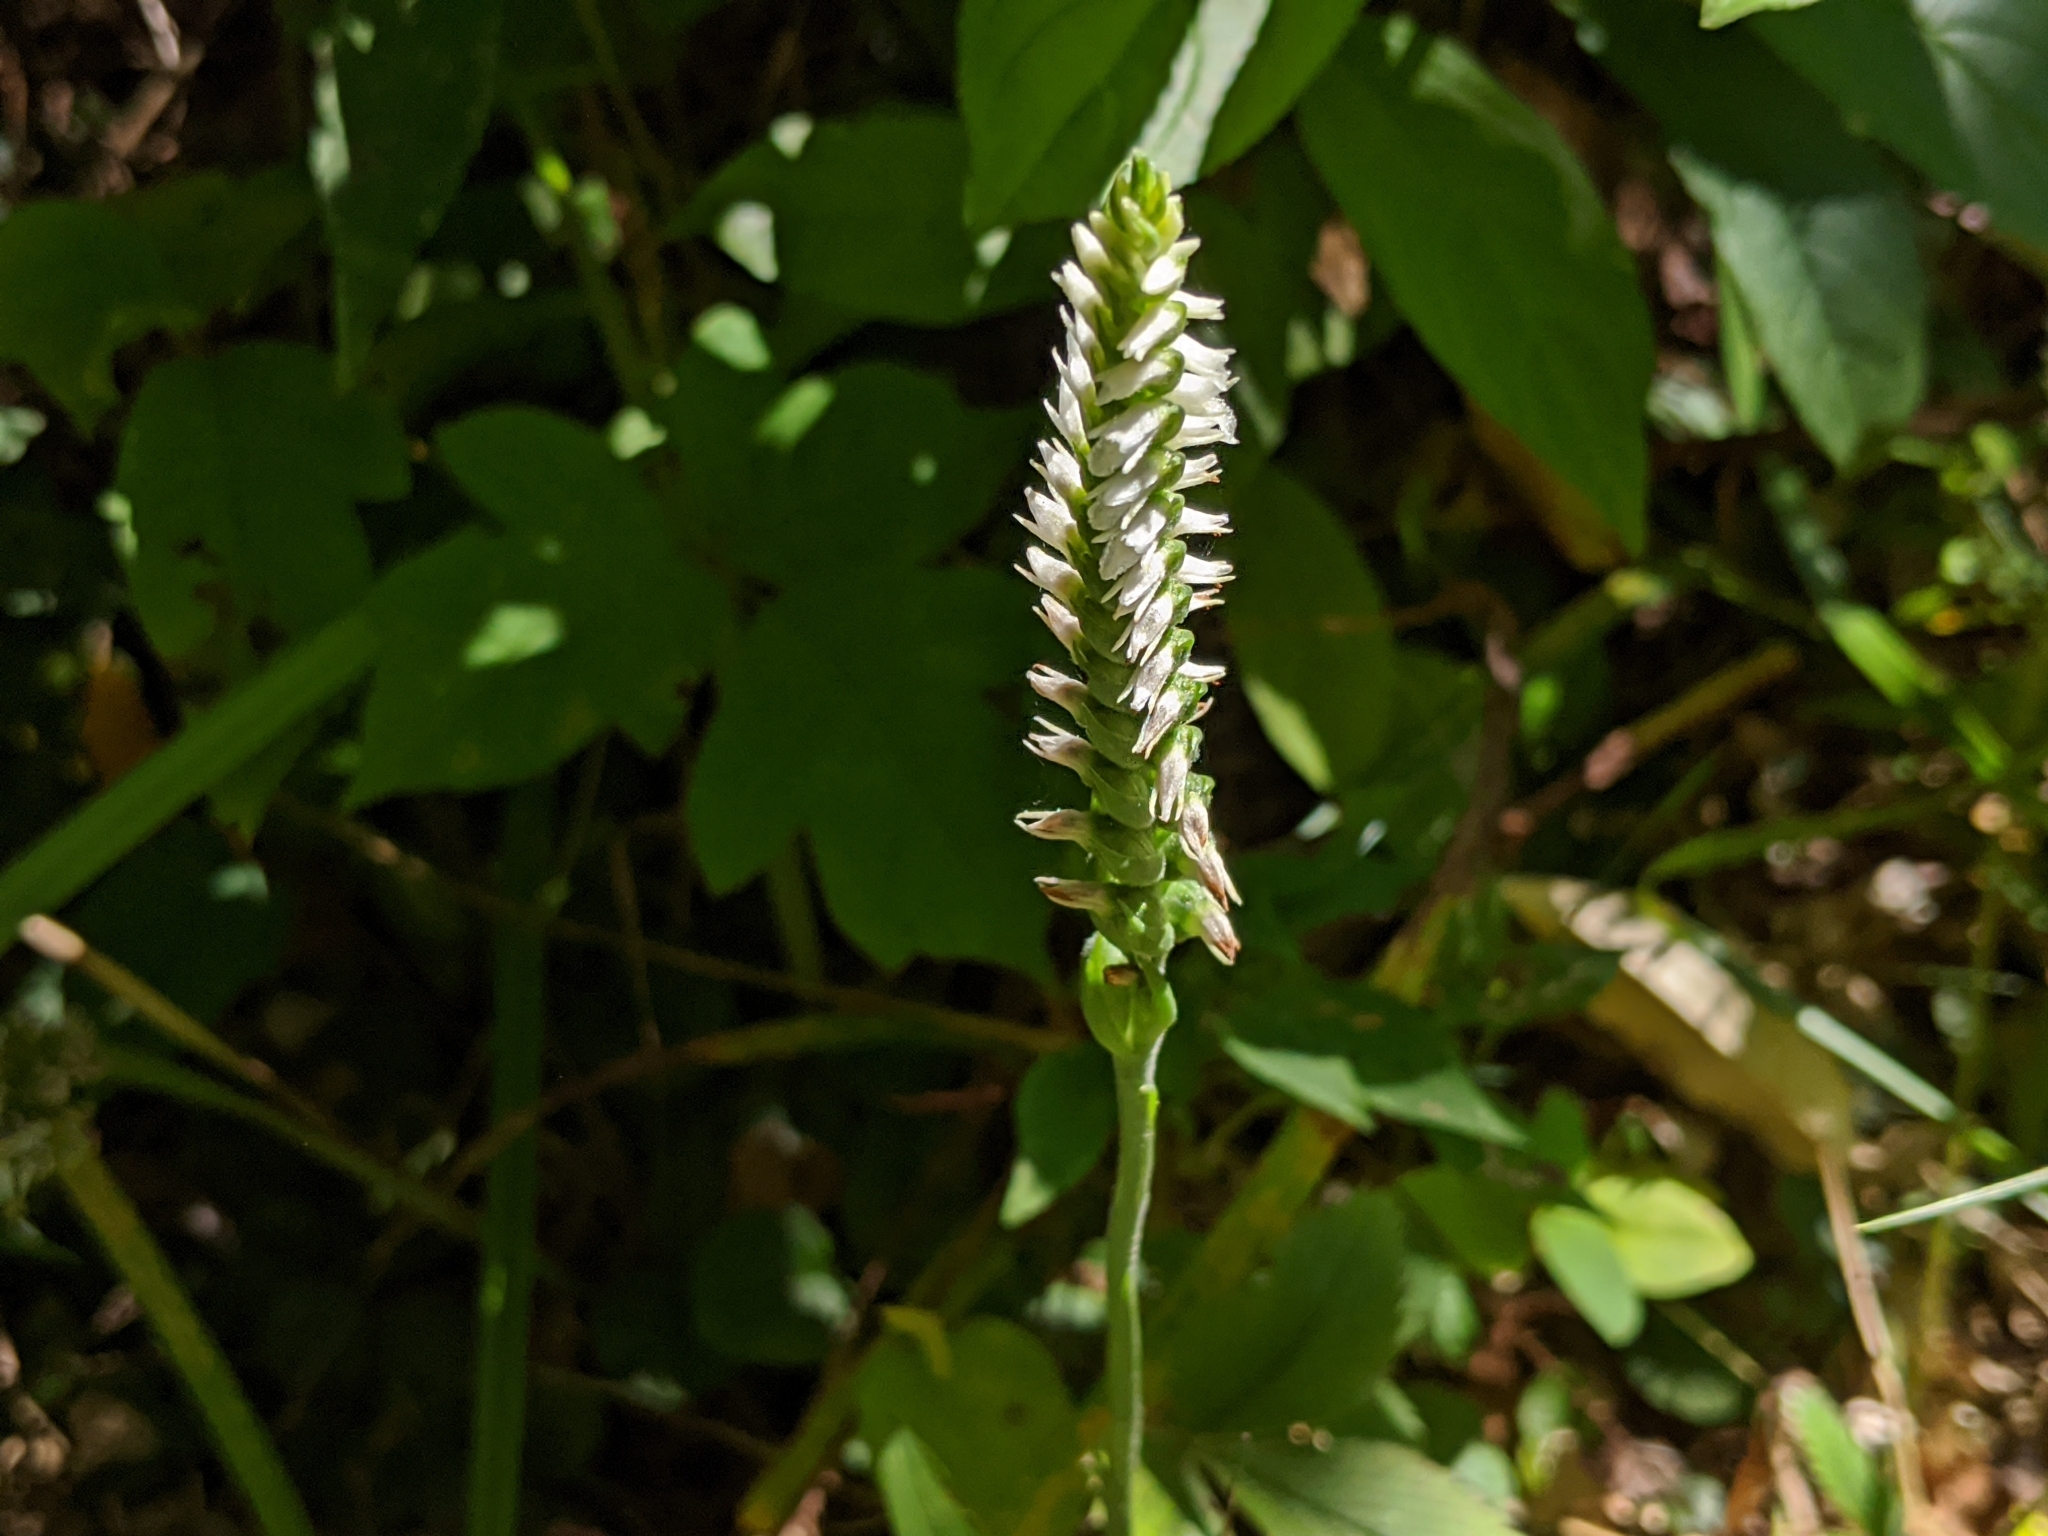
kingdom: Plantae
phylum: Tracheophyta
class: Liliopsida
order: Asparagales
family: Orchidaceae
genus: Spiranthes
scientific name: Spiranthes ovalis
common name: October ladies'-tresses
